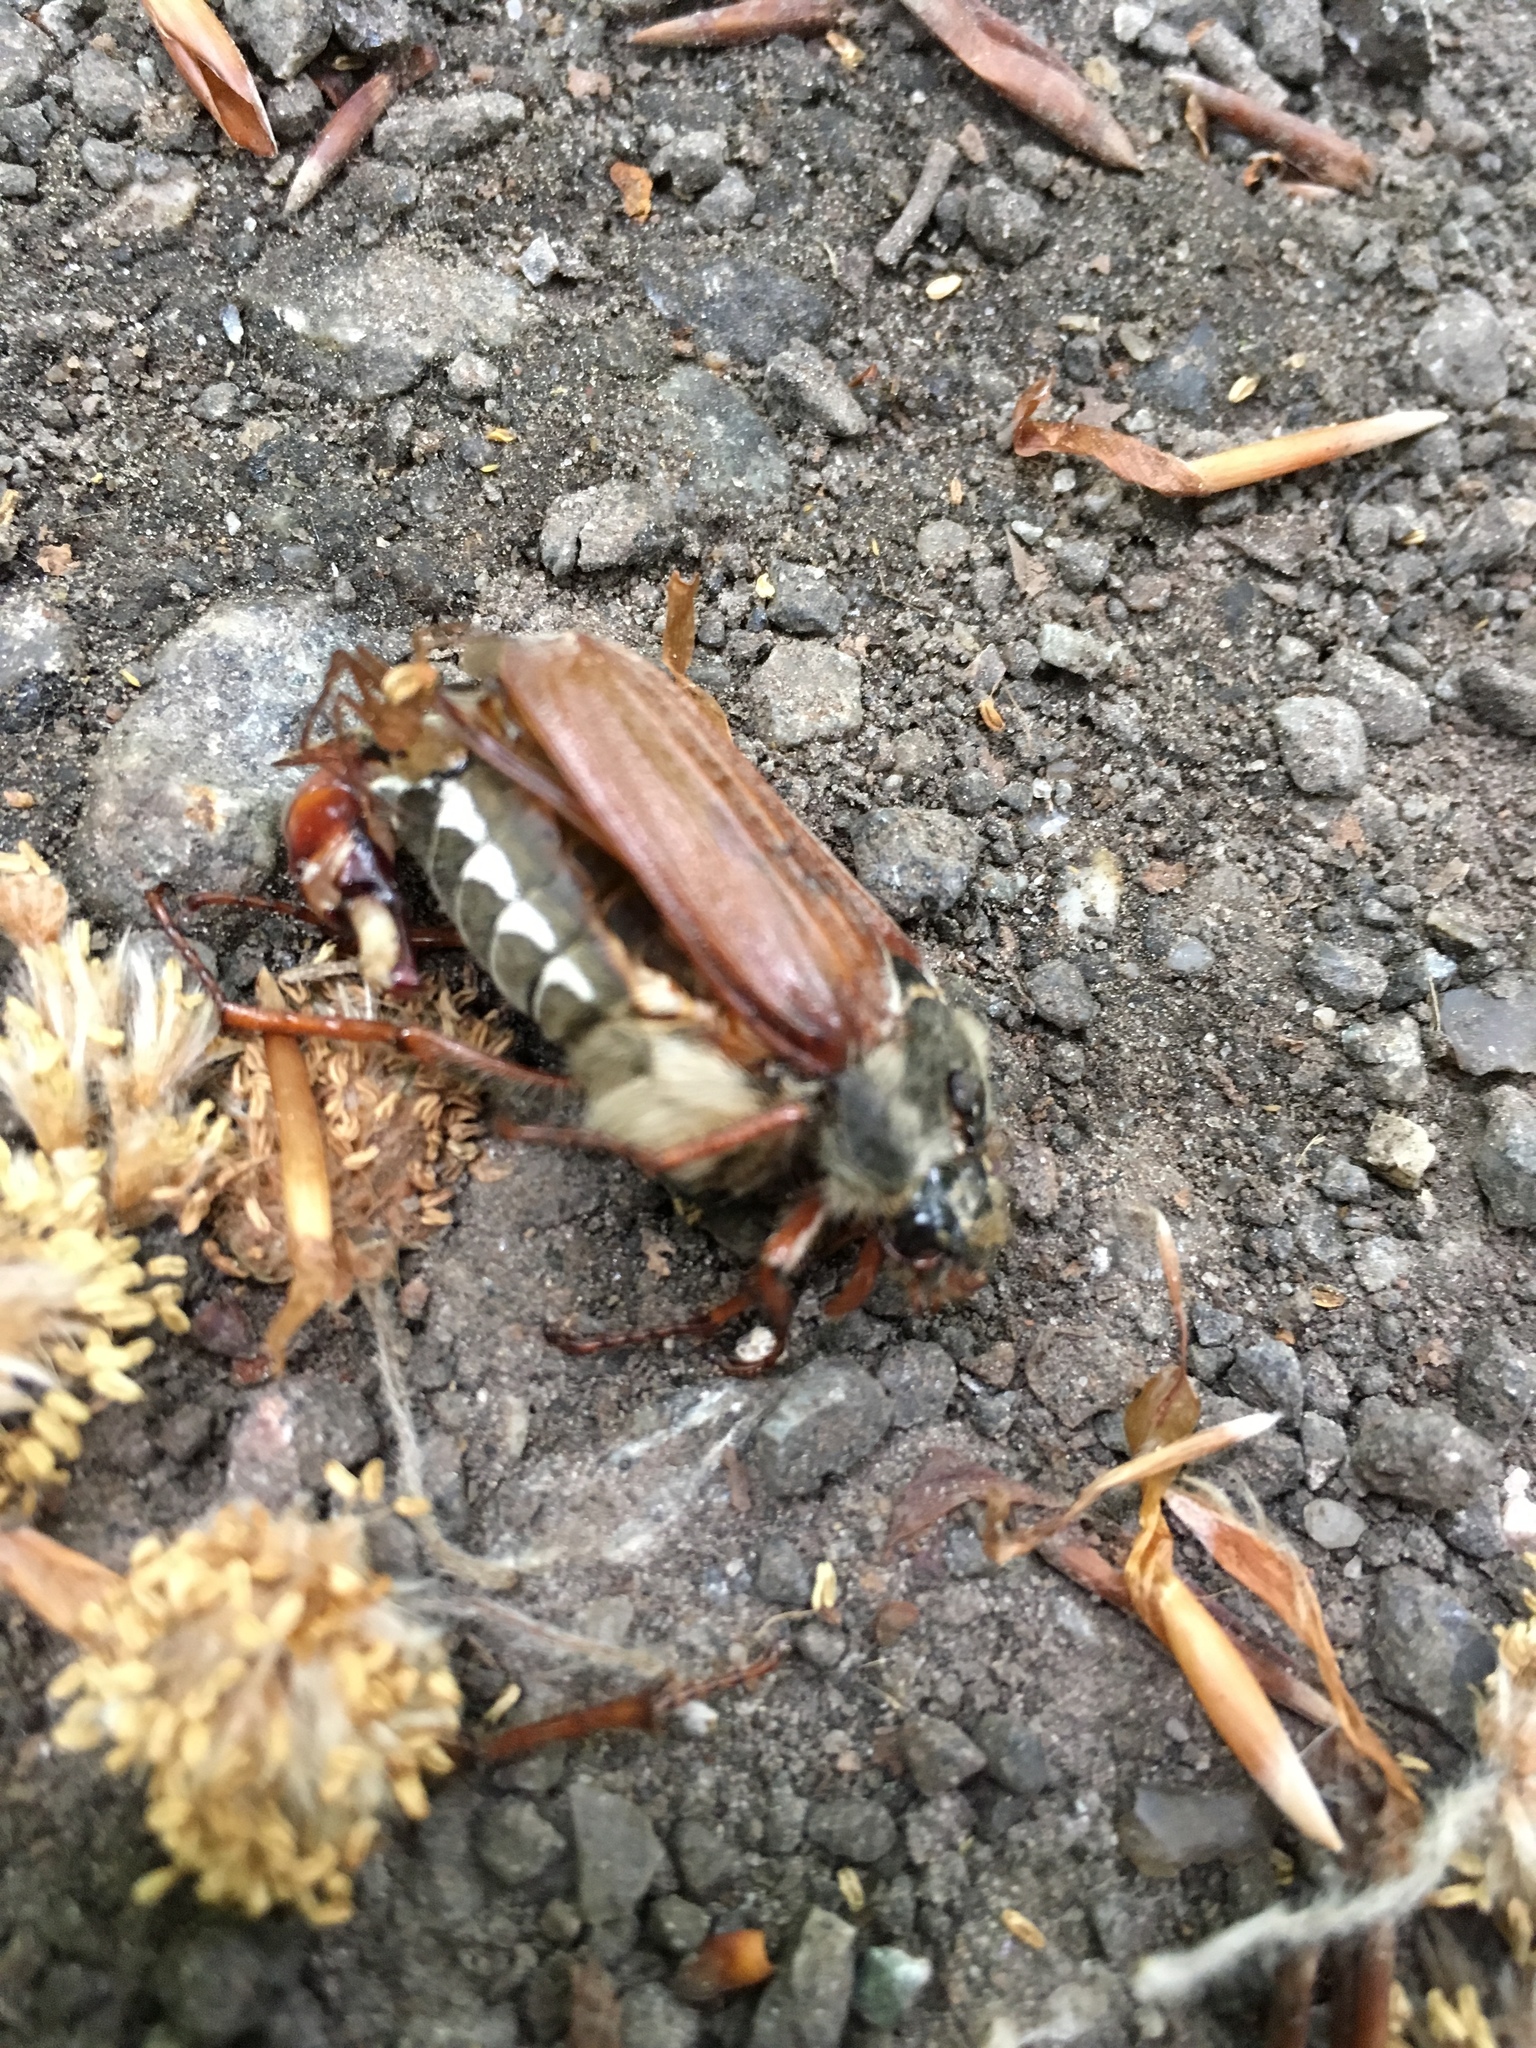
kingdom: Animalia
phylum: Arthropoda
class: Insecta
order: Coleoptera
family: Scarabaeidae
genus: Melolontha
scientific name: Melolontha melolontha
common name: Cockchafer maybeetle
